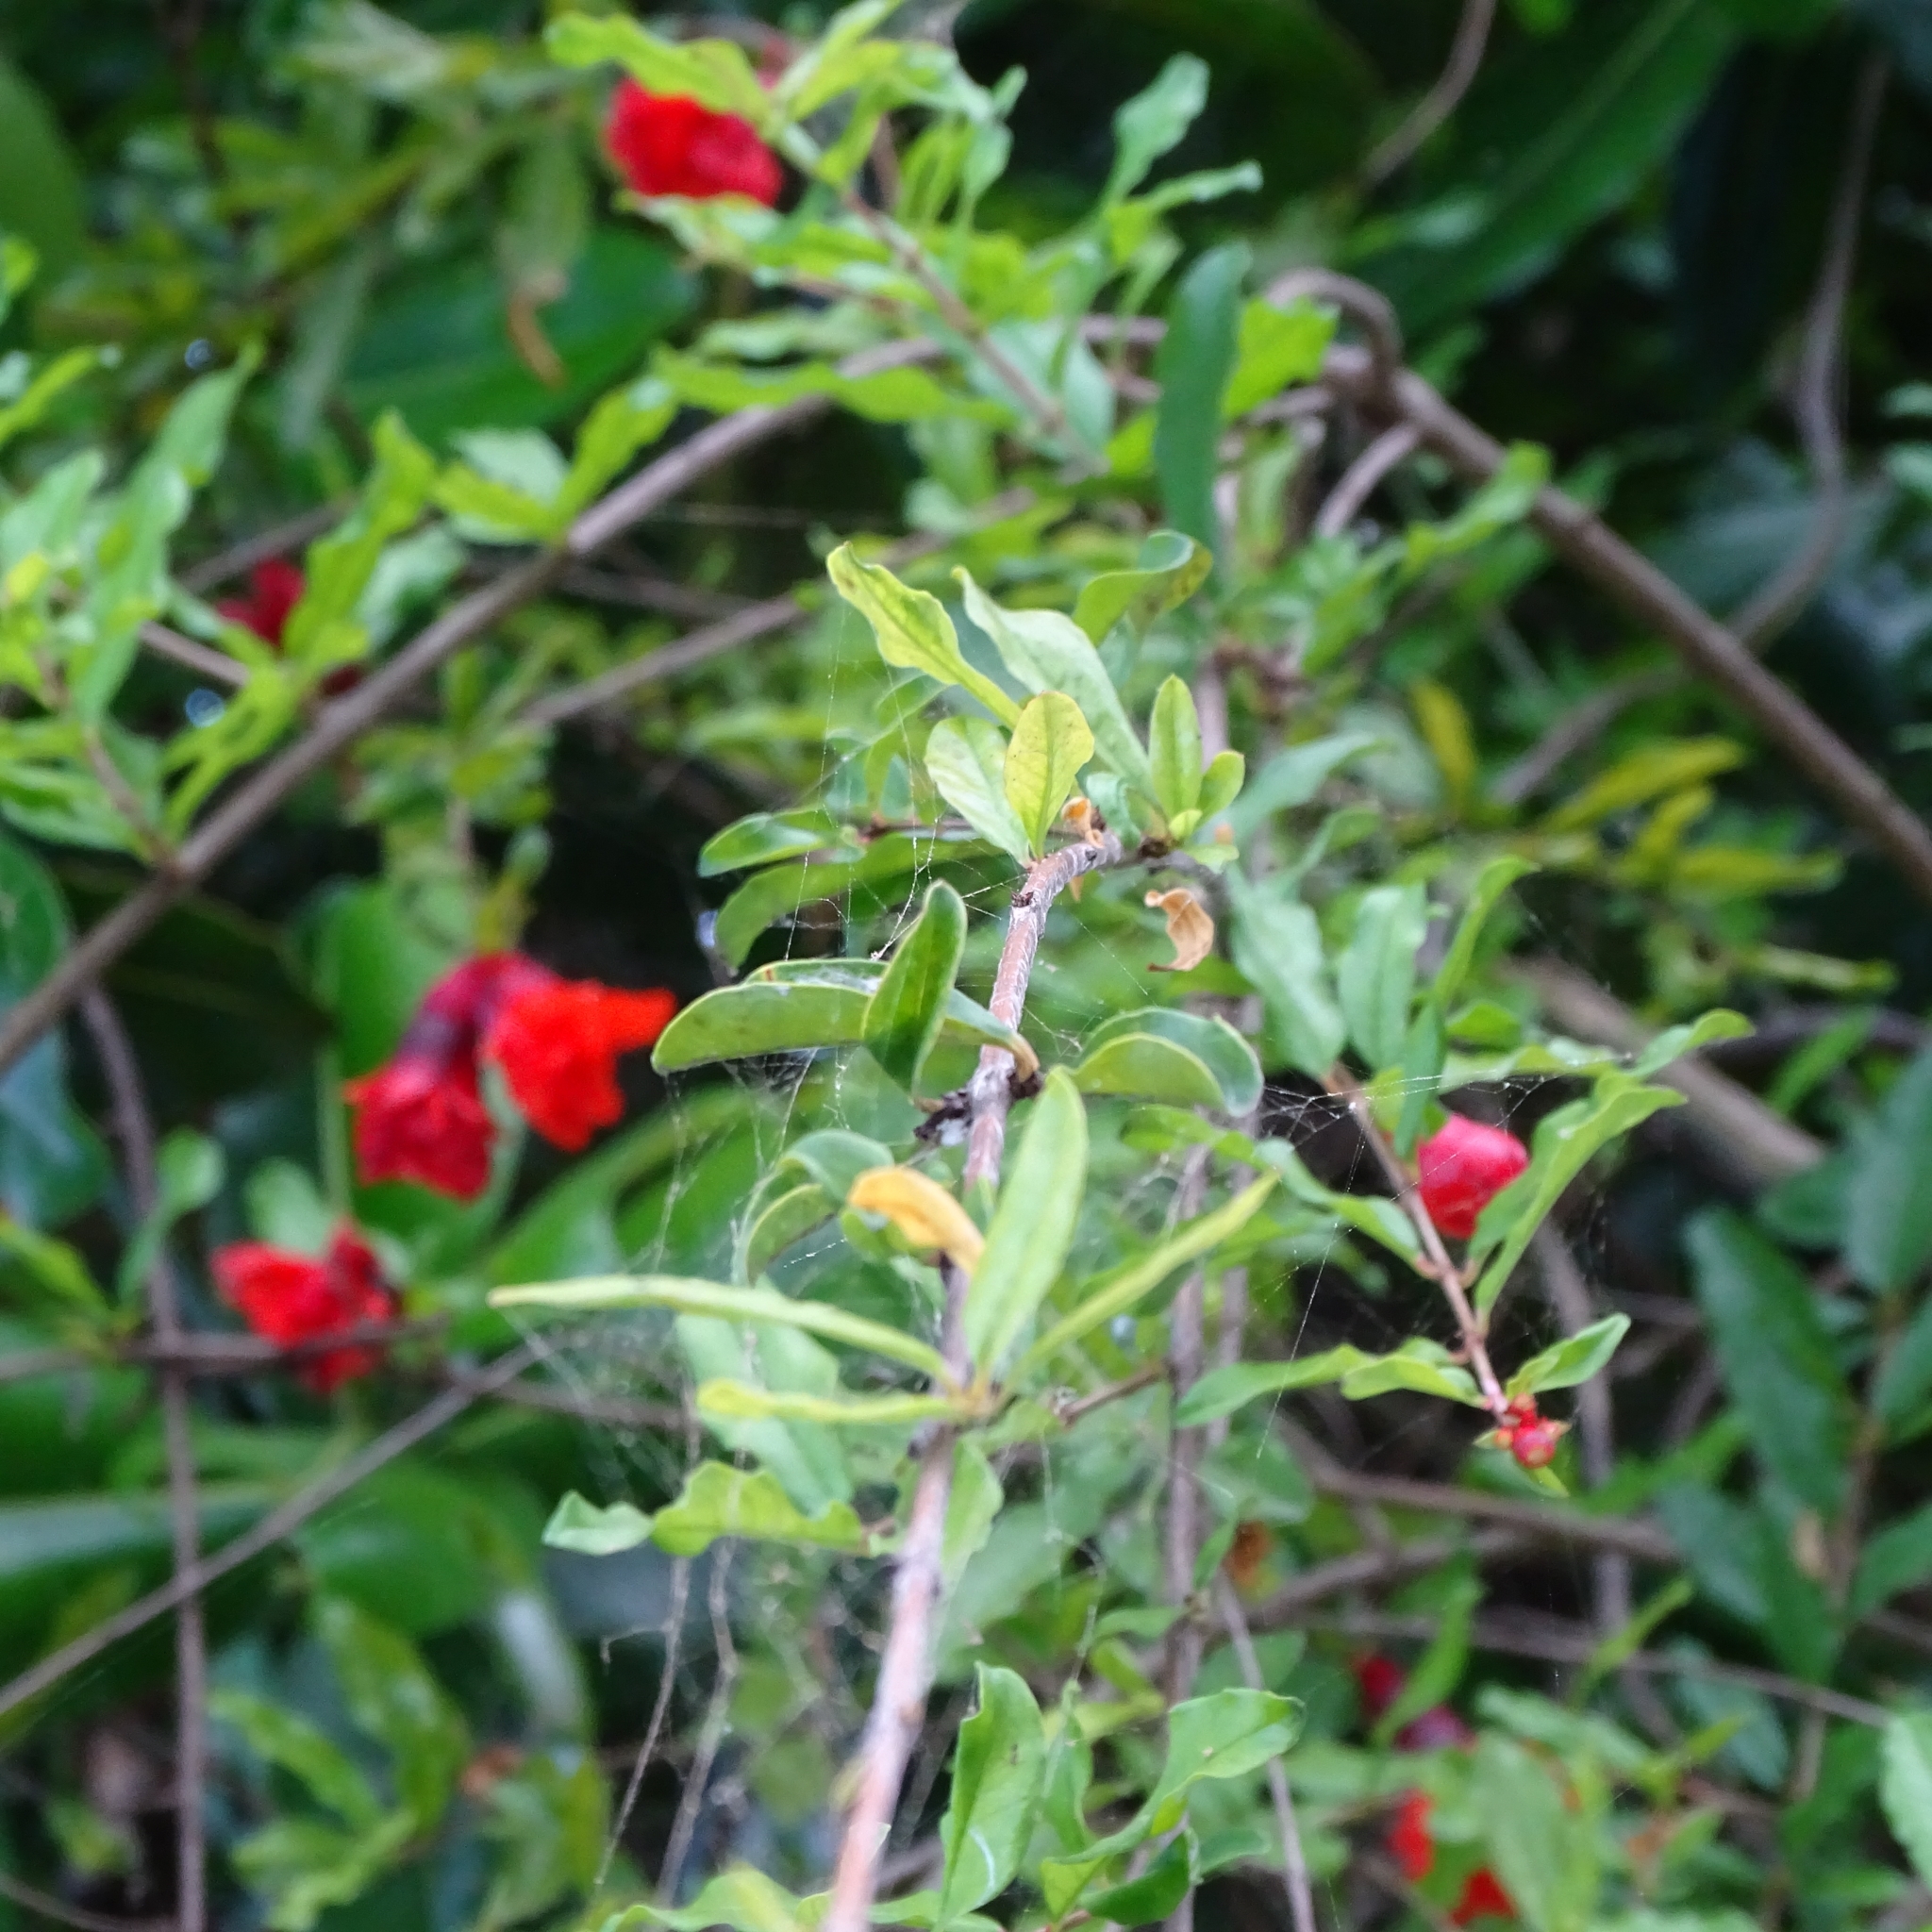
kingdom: Plantae
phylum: Tracheophyta
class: Magnoliopsida
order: Myrtales
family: Lythraceae
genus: Punica
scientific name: Punica granatum
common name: Pomegranate
